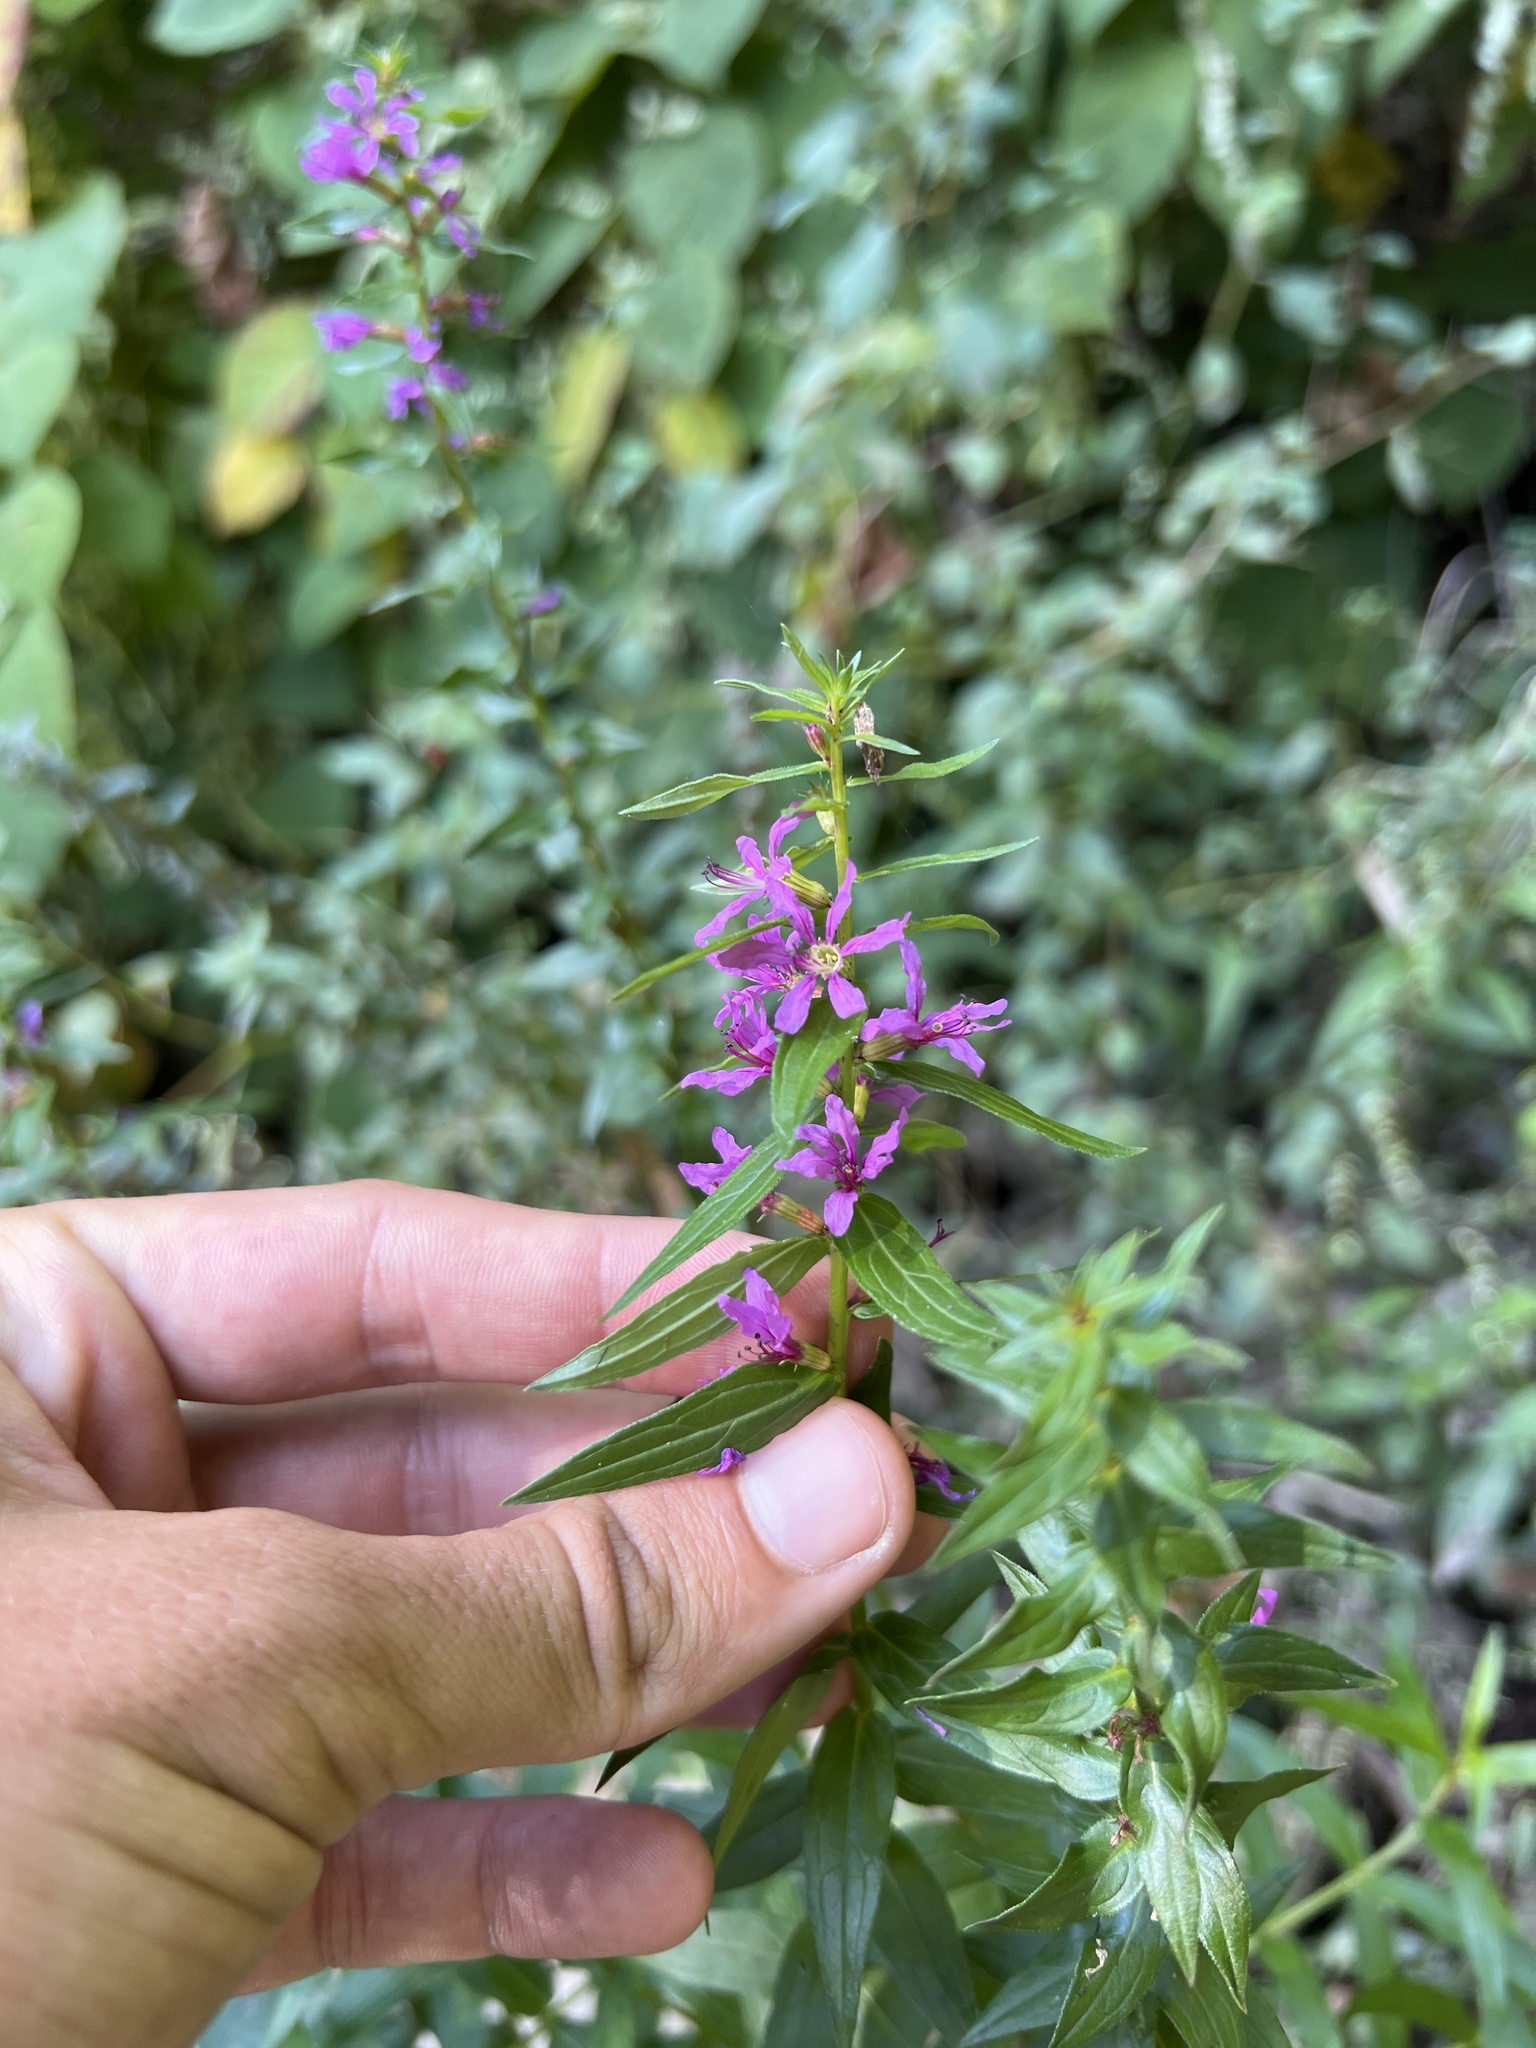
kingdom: Plantae
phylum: Tracheophyta
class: Magnoliopsida
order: Myrtales
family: Lythraceae
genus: Lythrum
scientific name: Lythrum salicaria
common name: Purple loosestrife
